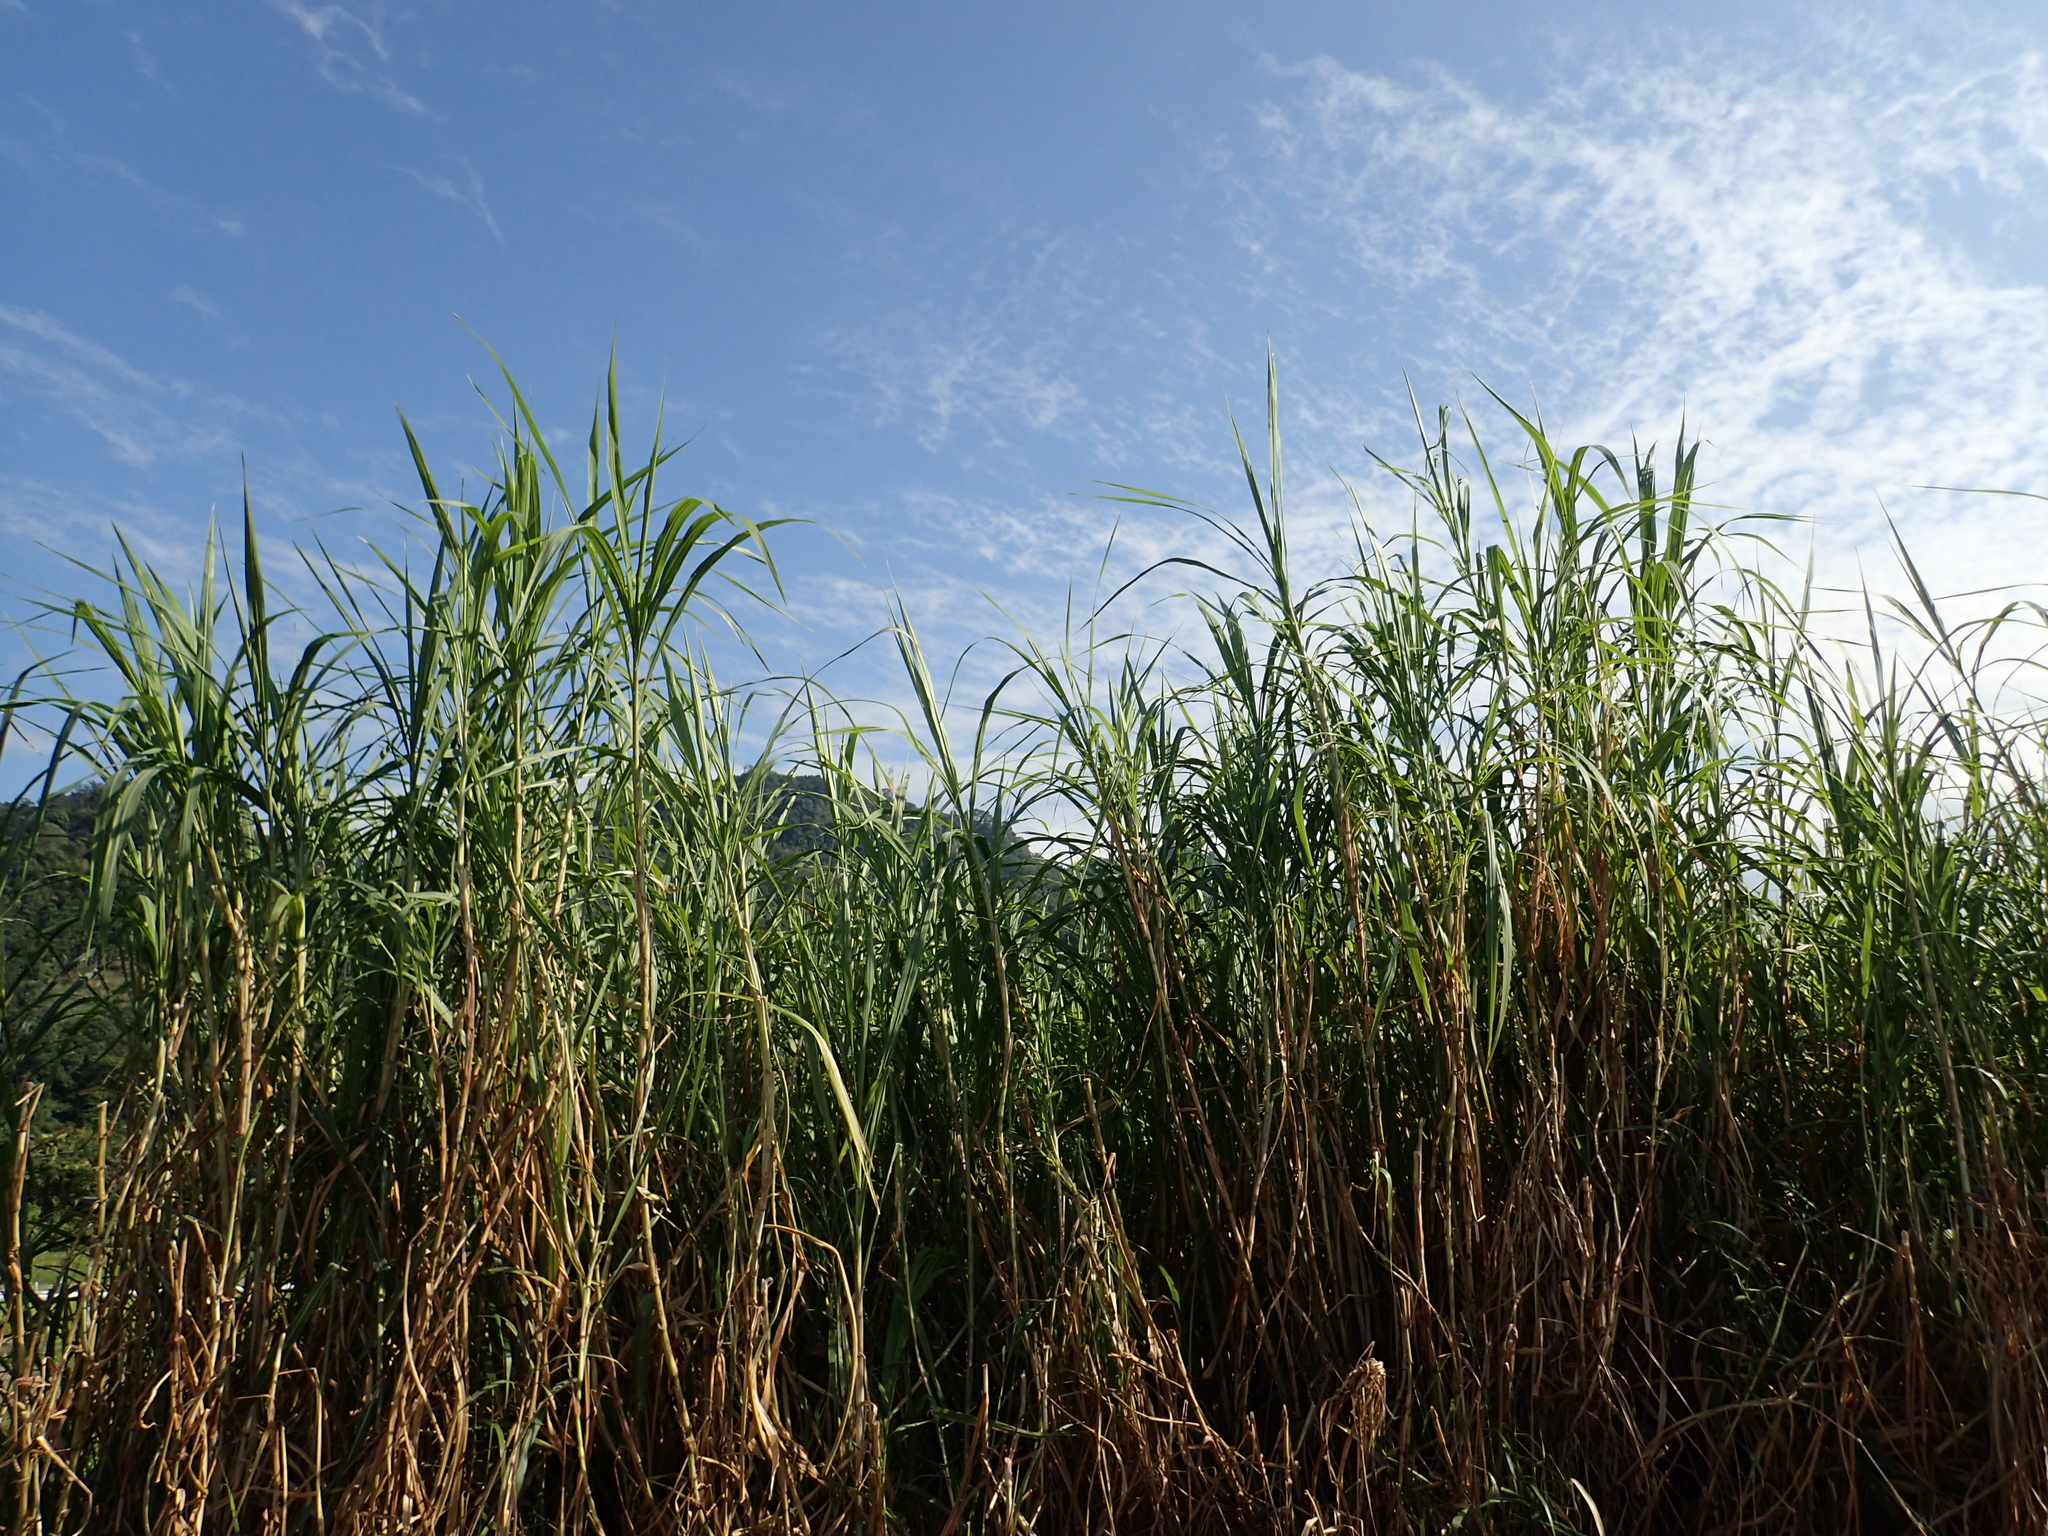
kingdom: Plantae
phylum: Tracheophyta
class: Liliopsida
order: Poales
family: Poaceae
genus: Cenchrus
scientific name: Cenchrus purpureus
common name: Elephant grass
